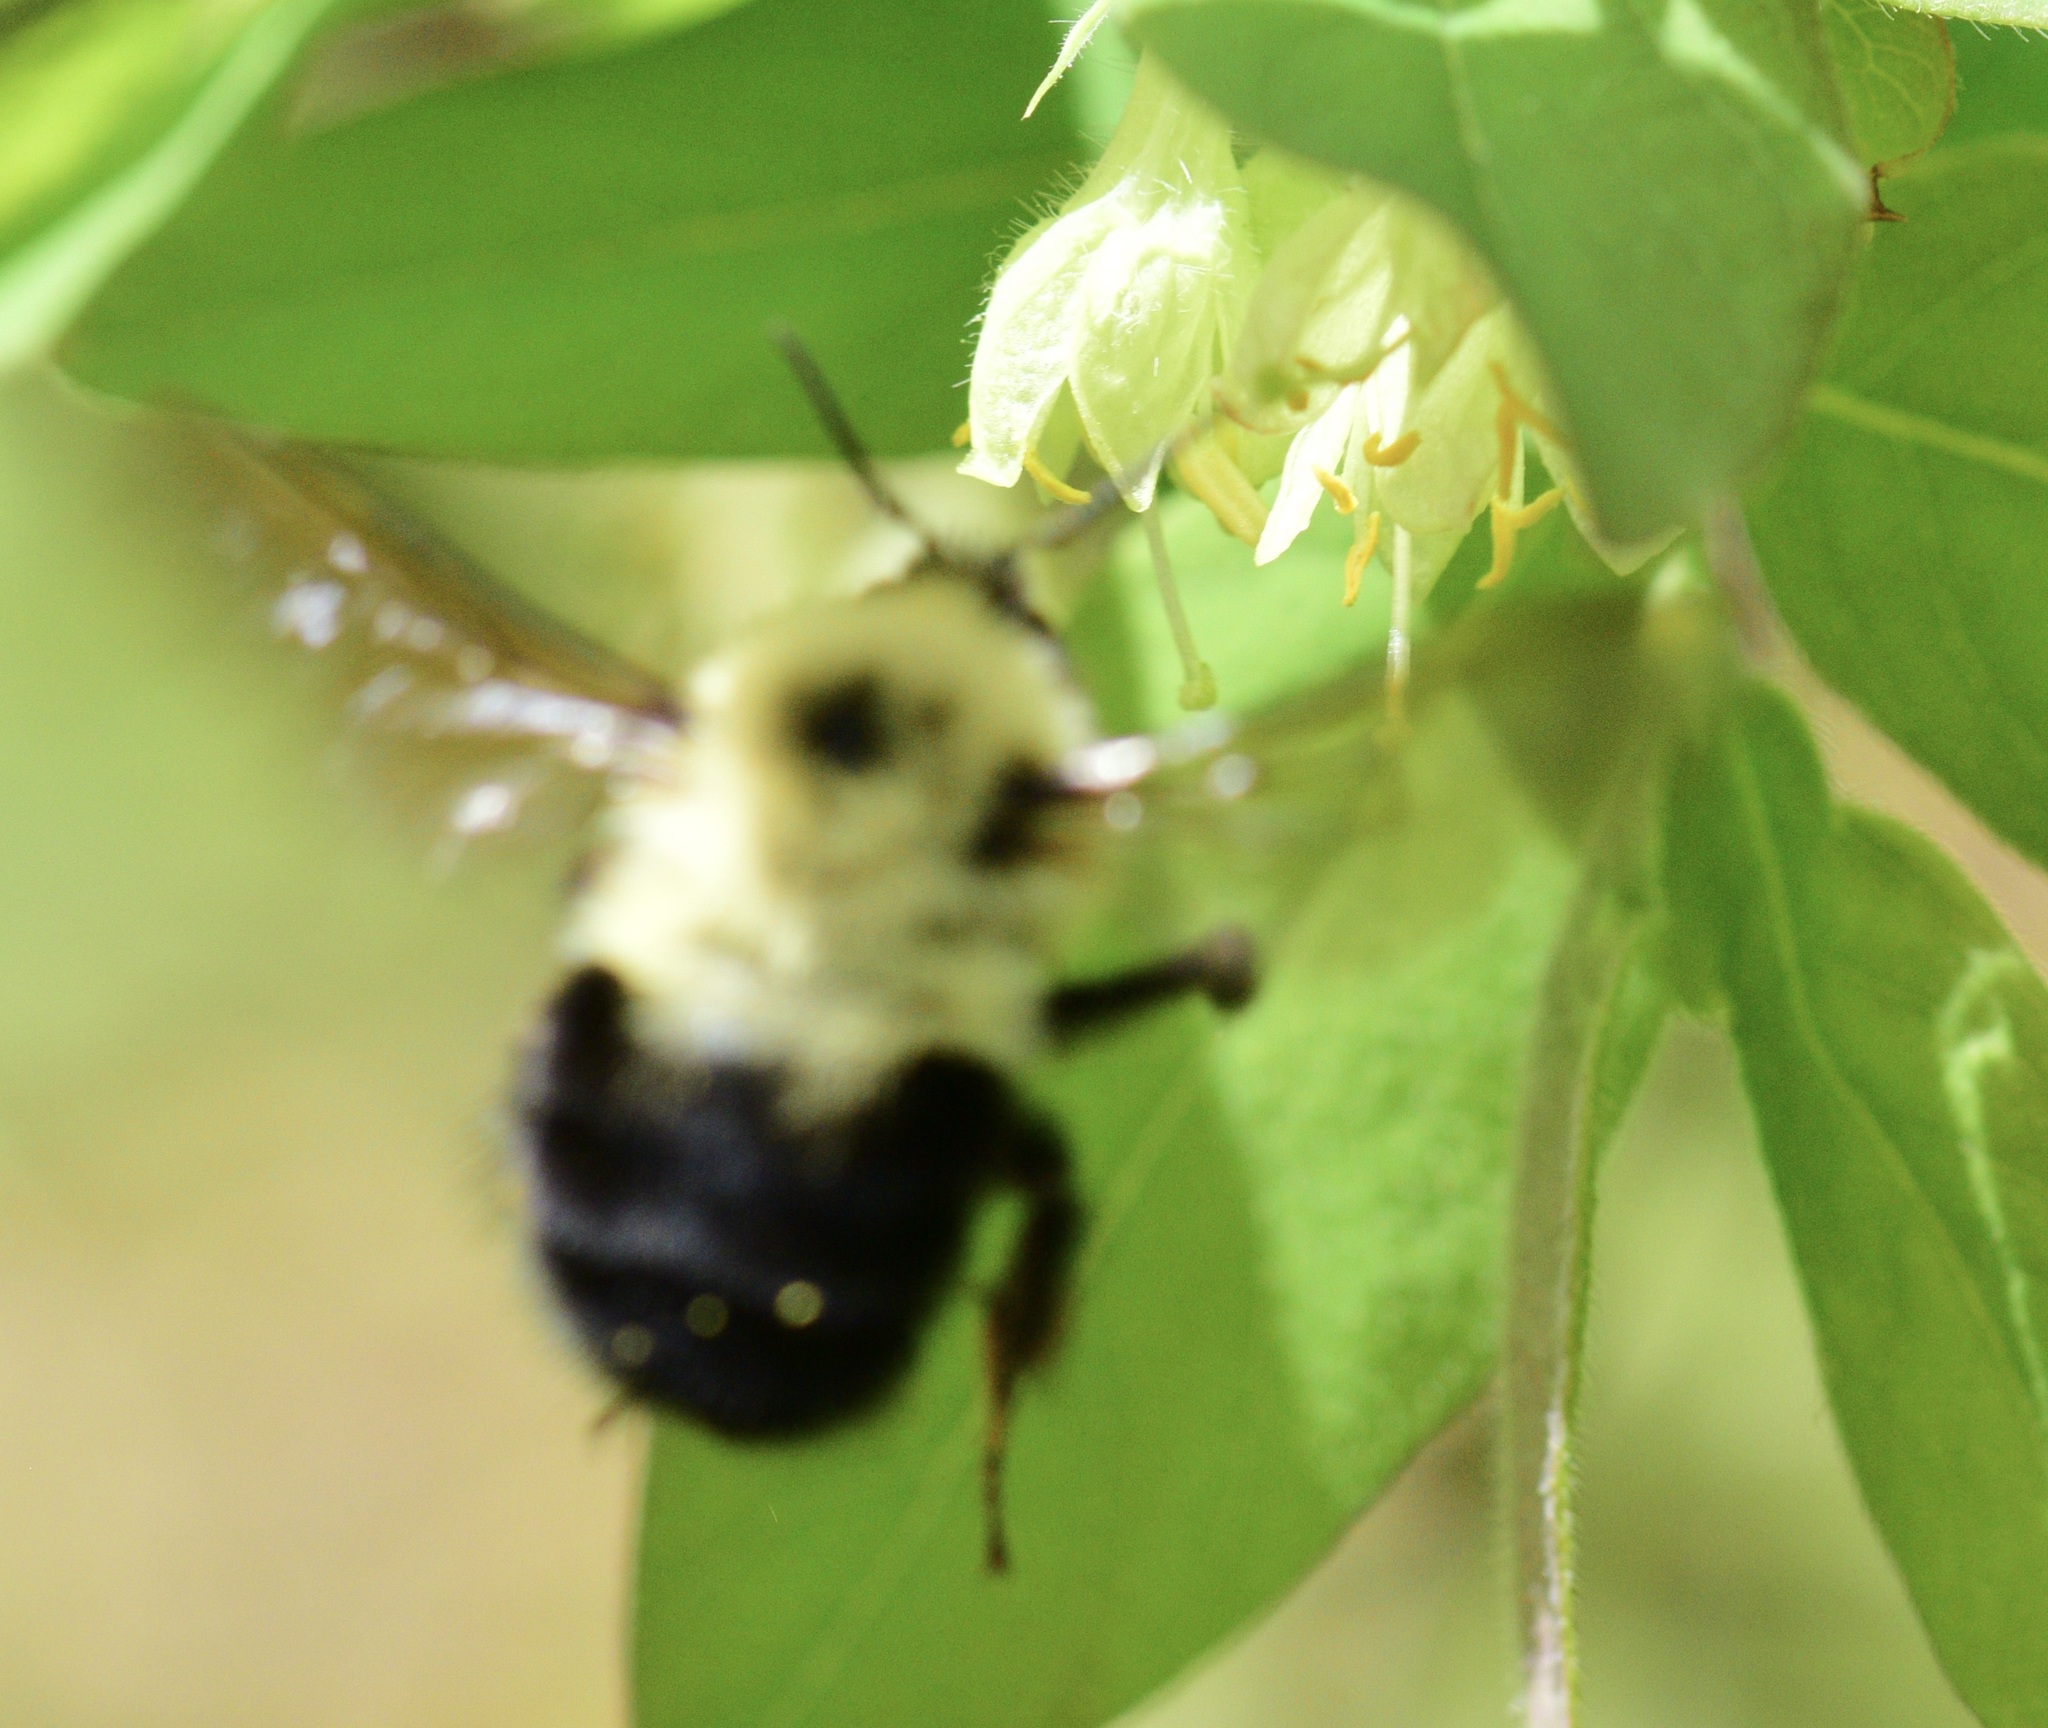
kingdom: Animalia
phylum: Arthropoda
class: Insecta
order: Hymenoptera
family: Apidae
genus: Bombus
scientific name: Bombus bimaculatus
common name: Two-spotted bumble bee
